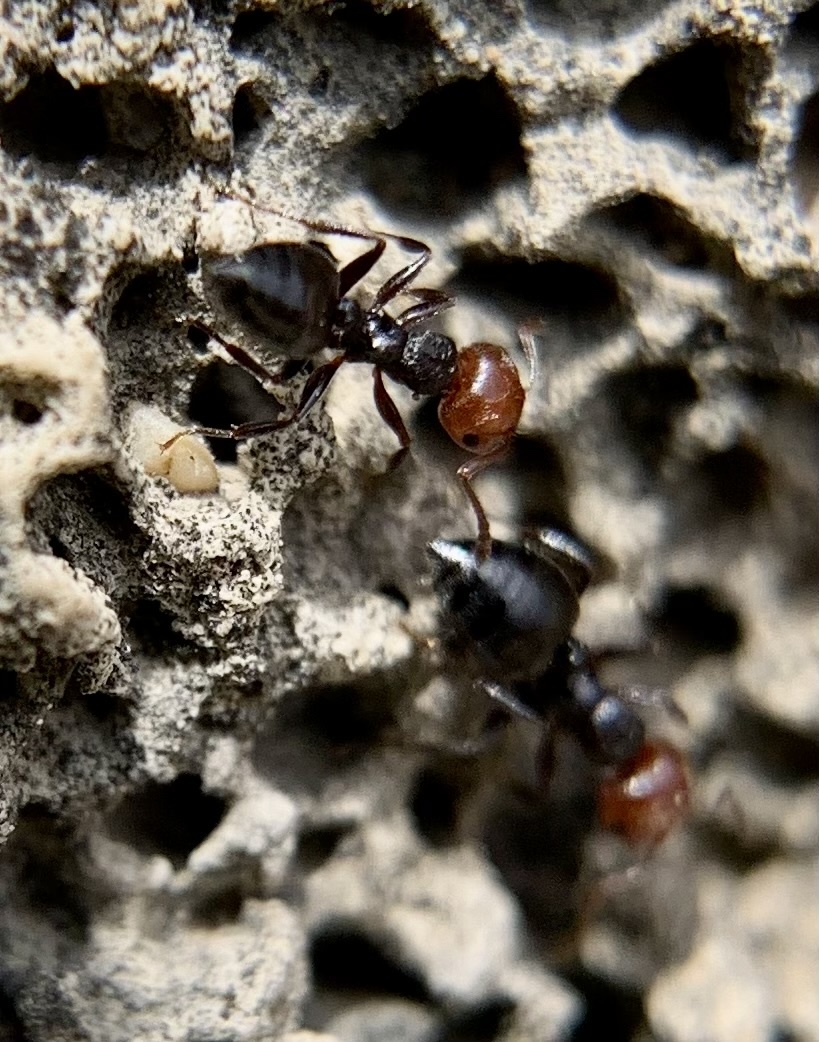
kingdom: Animalia
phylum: Arthropoda
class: Insecta
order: Hymenoptera
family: Formicidae
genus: Crematogaster
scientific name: Crematogaster scutellaris
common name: Fourmi du liège
